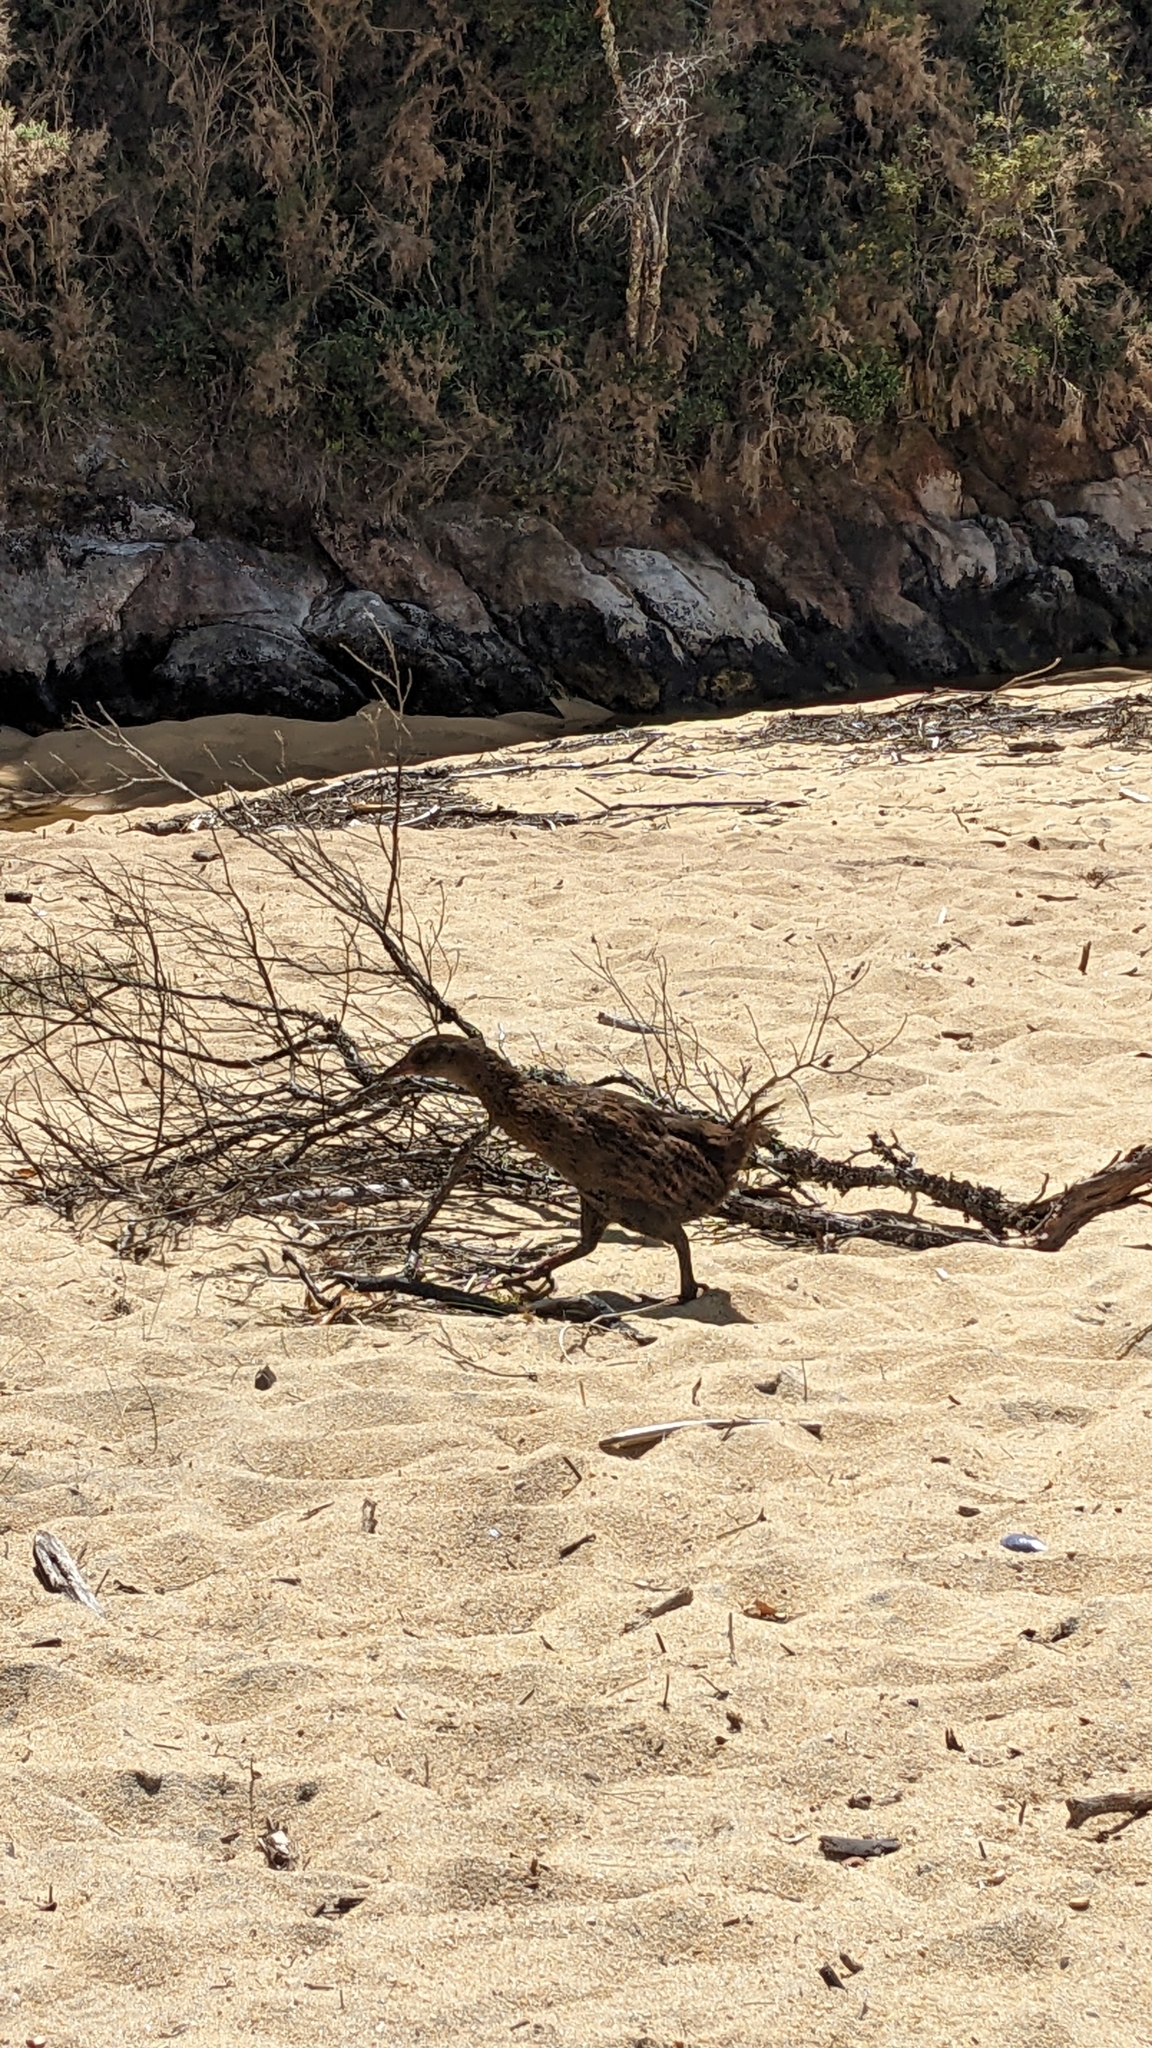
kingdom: Animalia
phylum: Chordata
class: Aves
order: Gruiformes
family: Rallidae
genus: Gallirallus
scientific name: Gallirallus australis
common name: Weka
